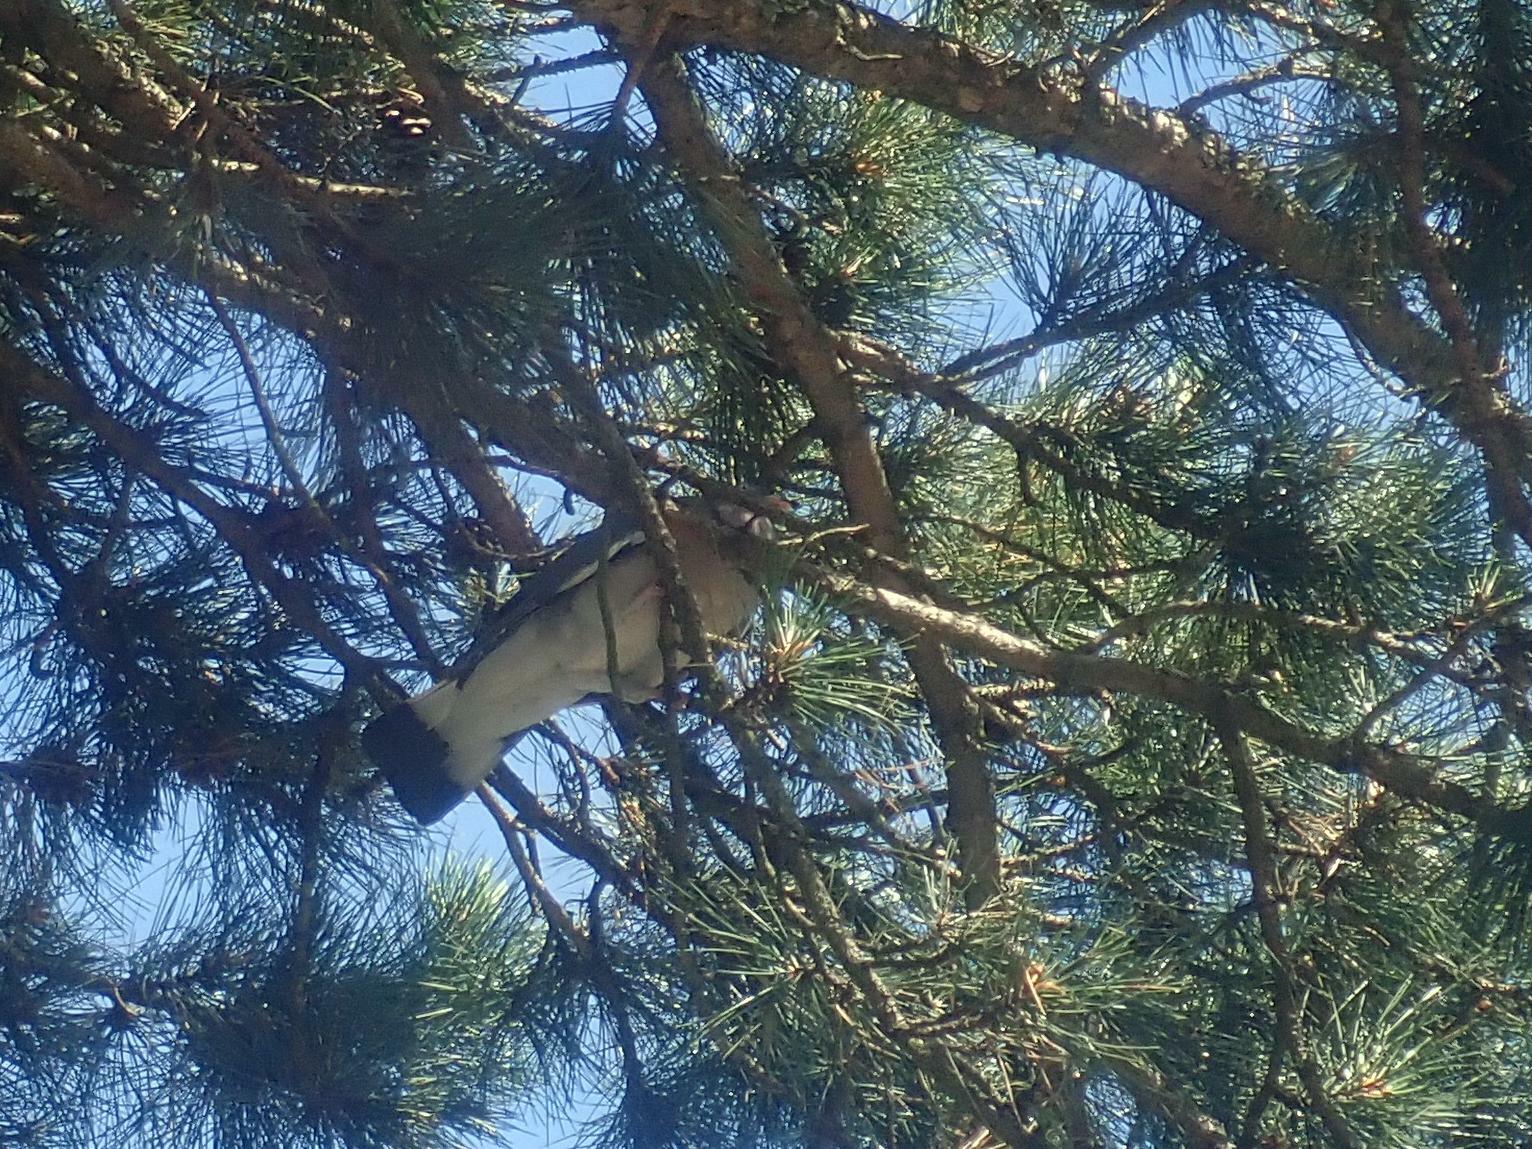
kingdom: Animalia
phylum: Chordata
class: Aves
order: Columbiformes
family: Columbidae
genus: Columba
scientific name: Columba palumbus
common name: Common wood pigeon
